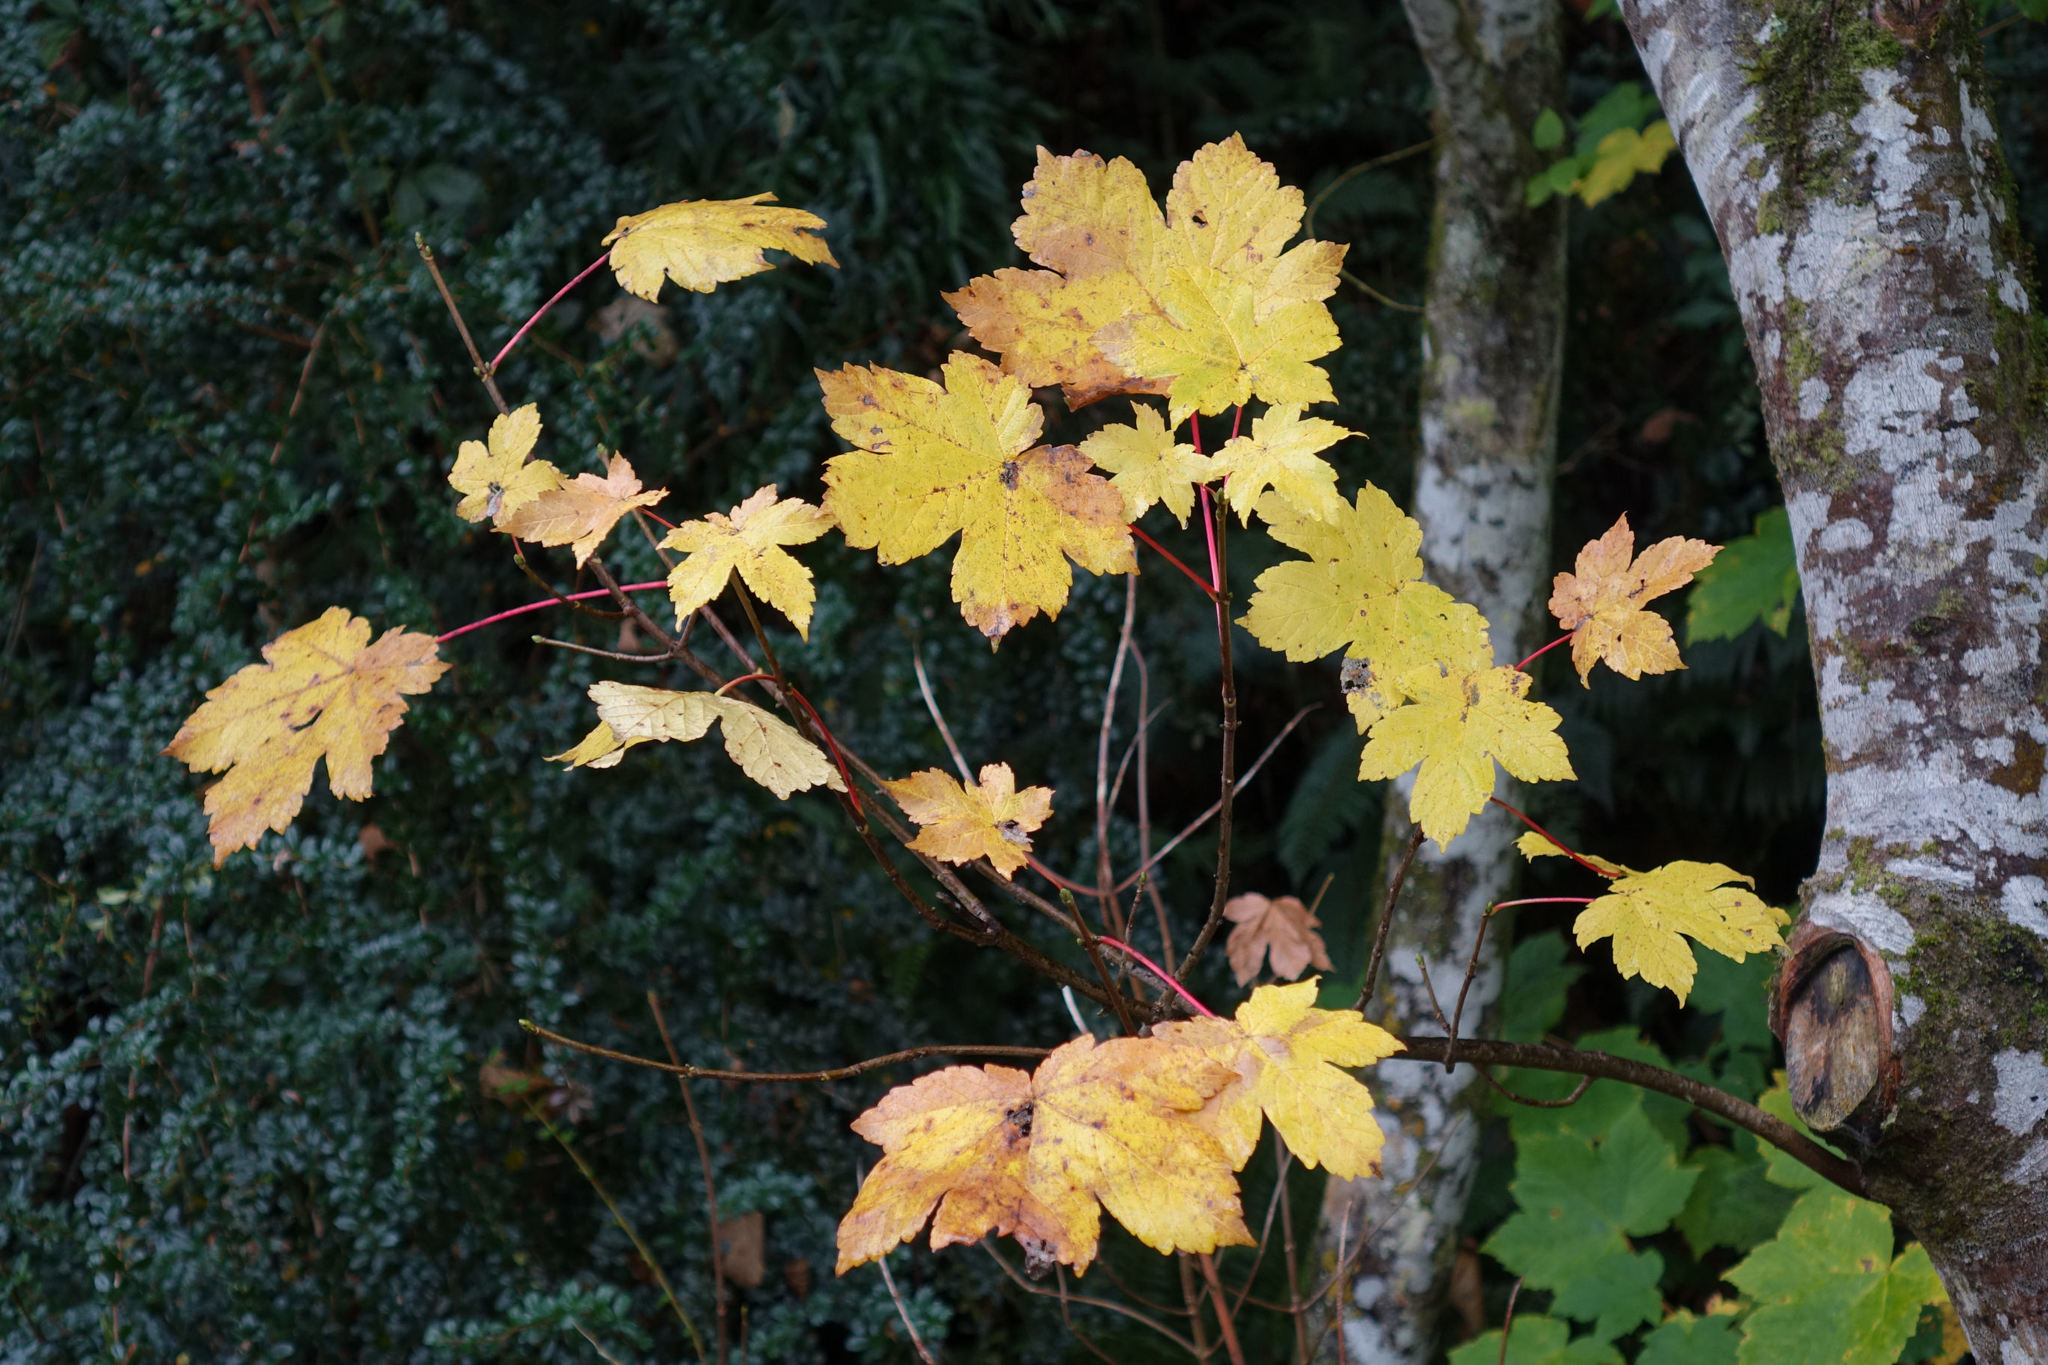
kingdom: Plantae
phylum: Tracheophyta
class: Magnoliopsida
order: Sapindales
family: Sapindaceae
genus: Acer
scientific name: Acer pseudoplatanus
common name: Sycamore
